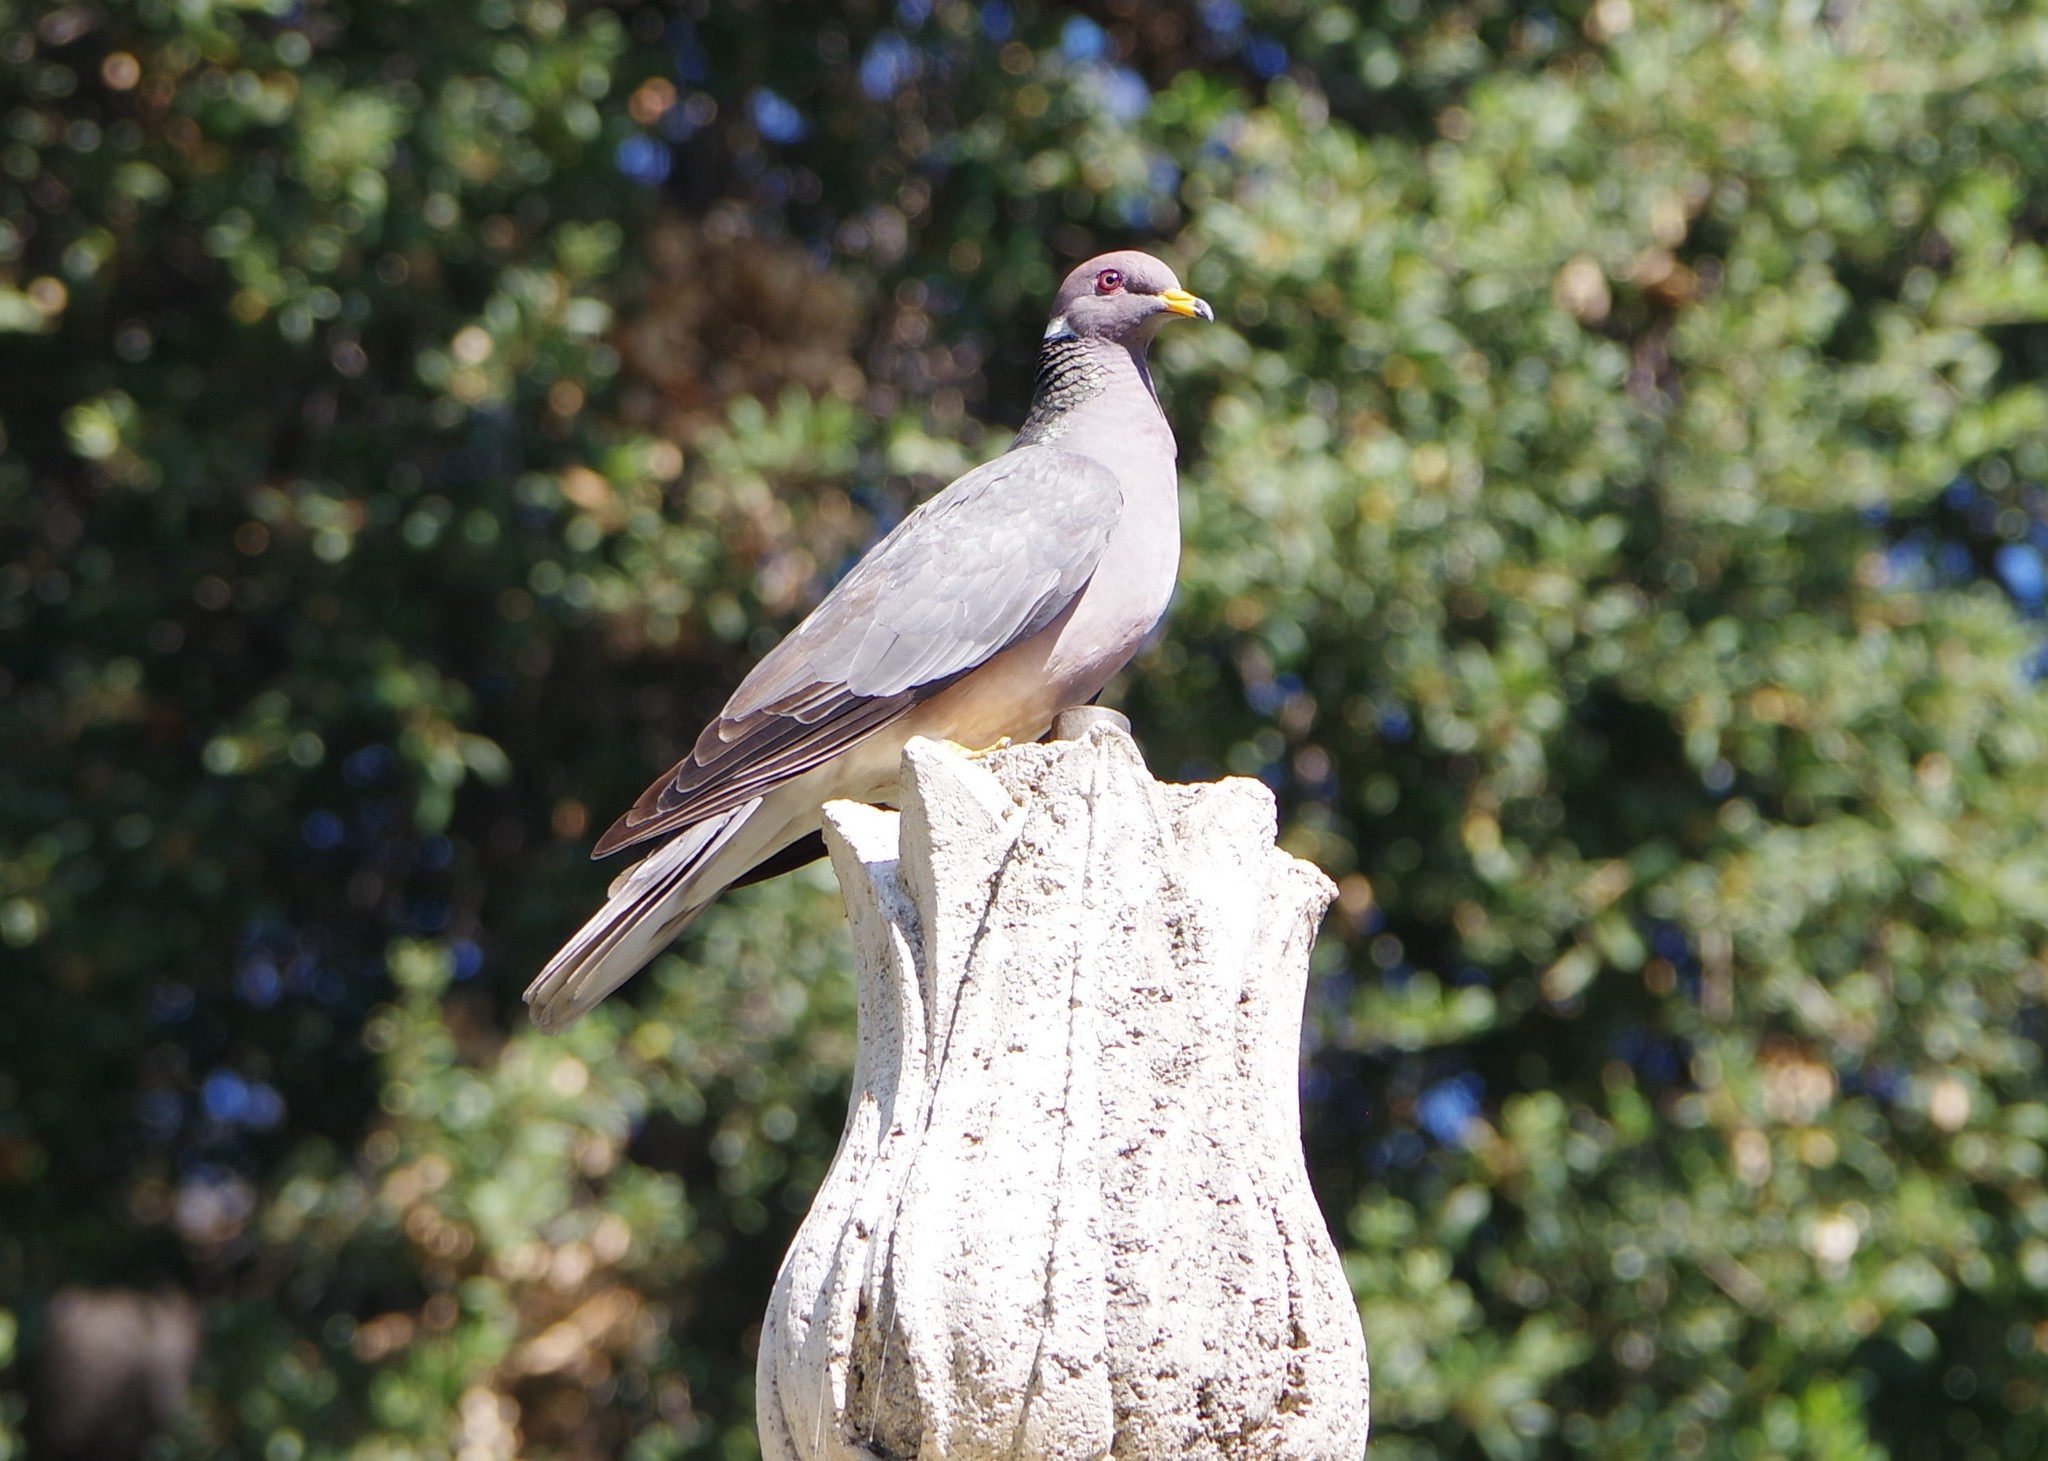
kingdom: Animalia
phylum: Chordata
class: Aves
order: Columbiformes
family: Columbidae
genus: Patagioenas
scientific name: Patagioenas fasciata
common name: Band-tailed pigeon
